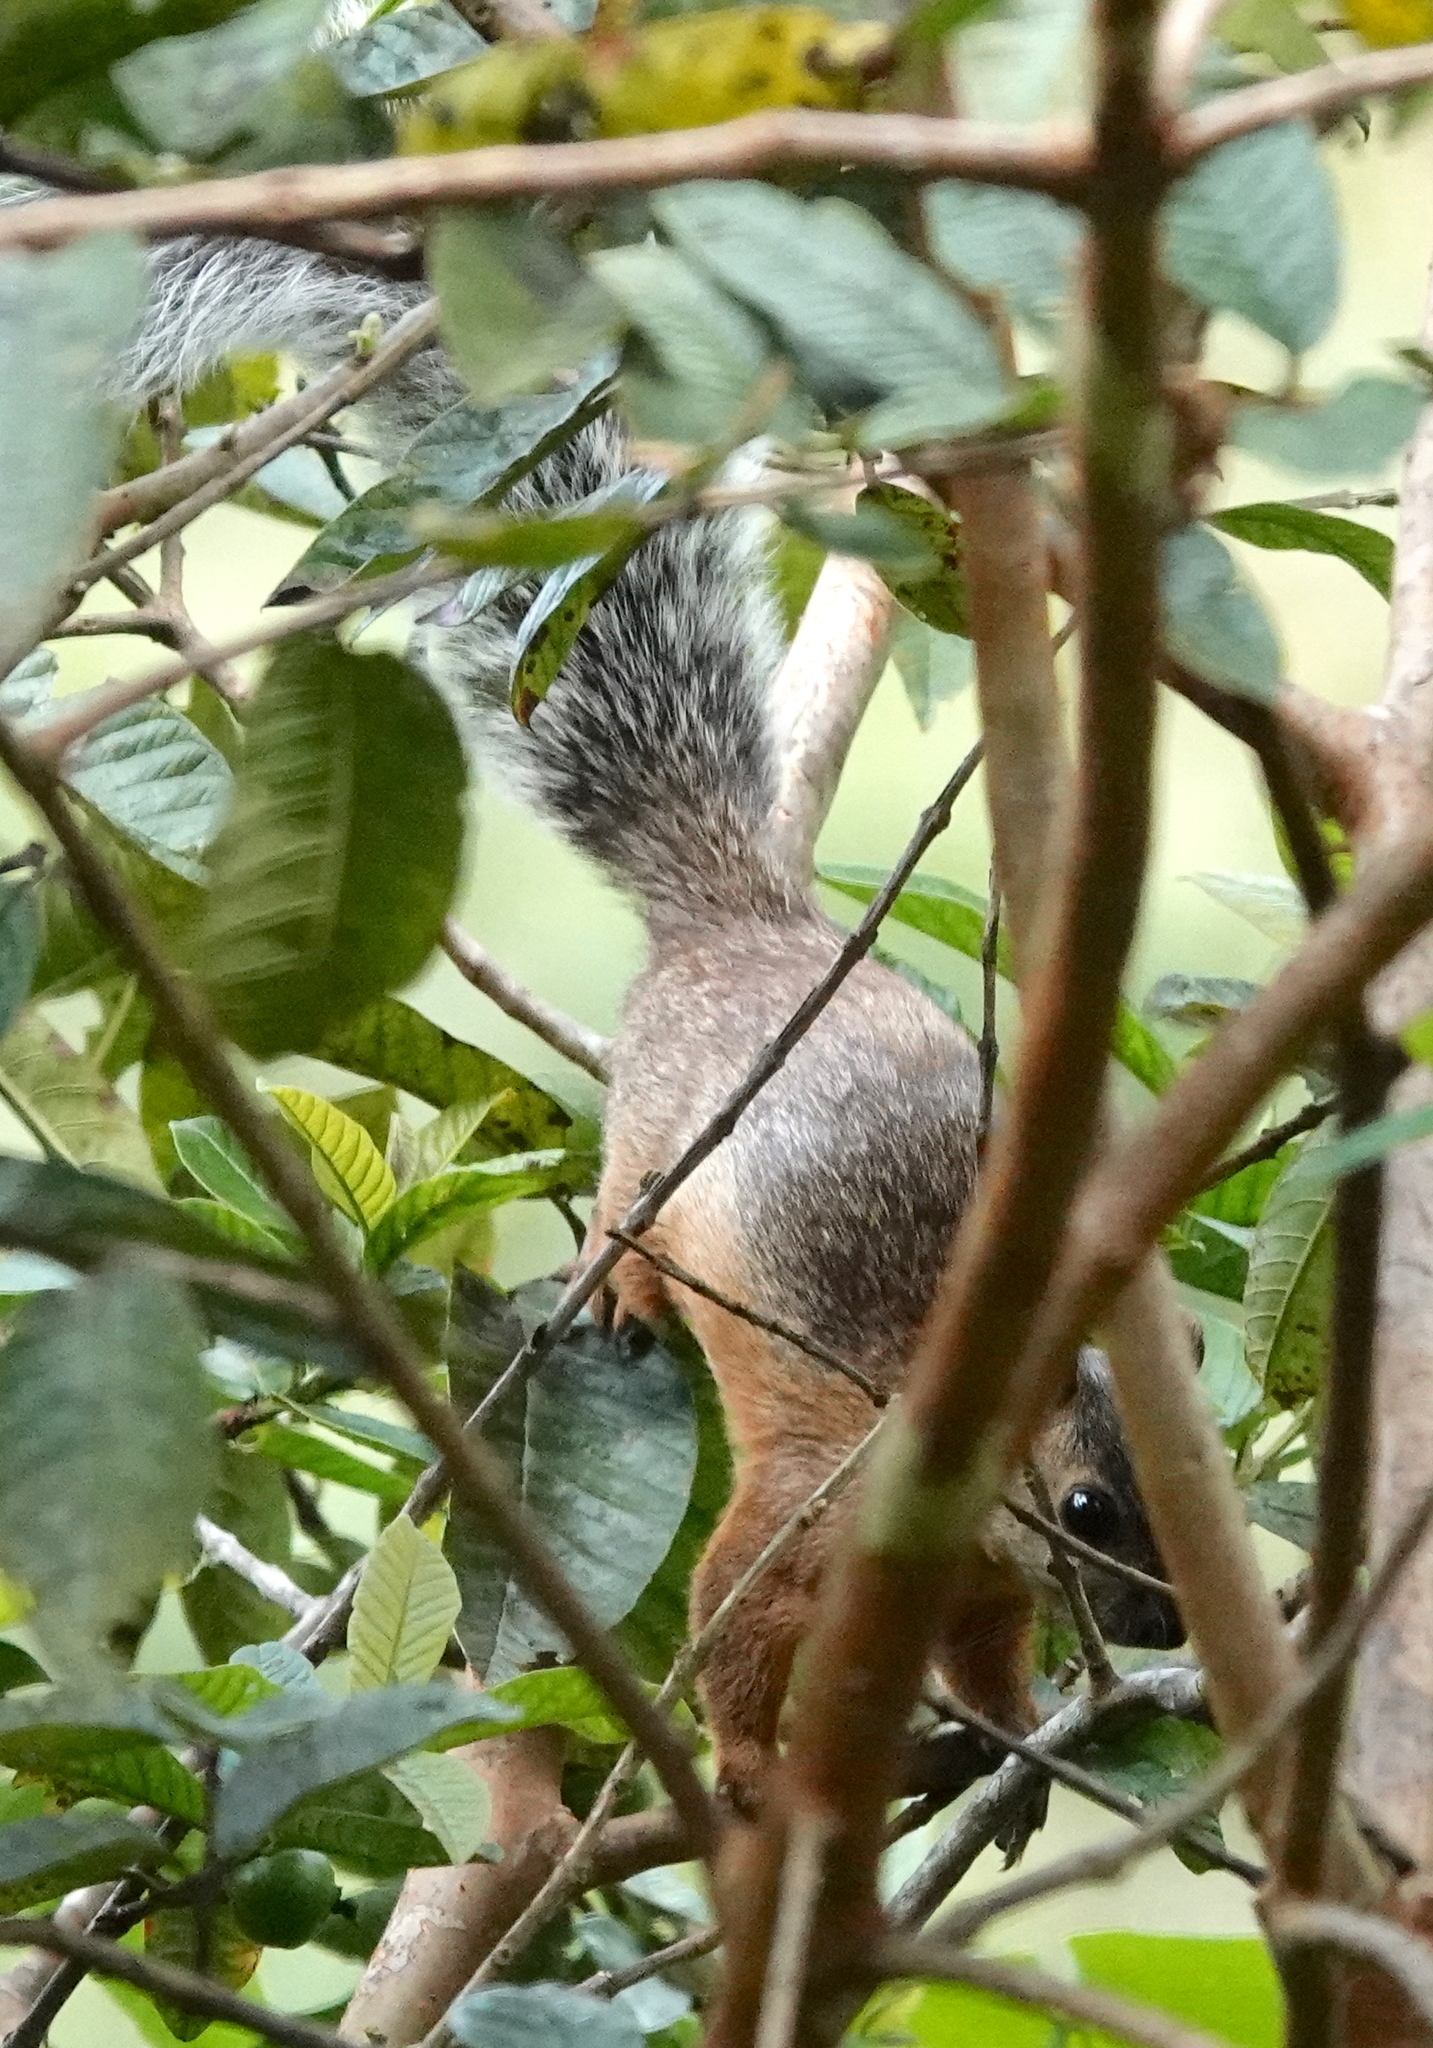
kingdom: Animalia
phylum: Chordata
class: Mammalia
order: Rodentia
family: Sciuridae
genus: Sciurus
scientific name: Sciurus variegatoides
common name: Variegated squirrel
